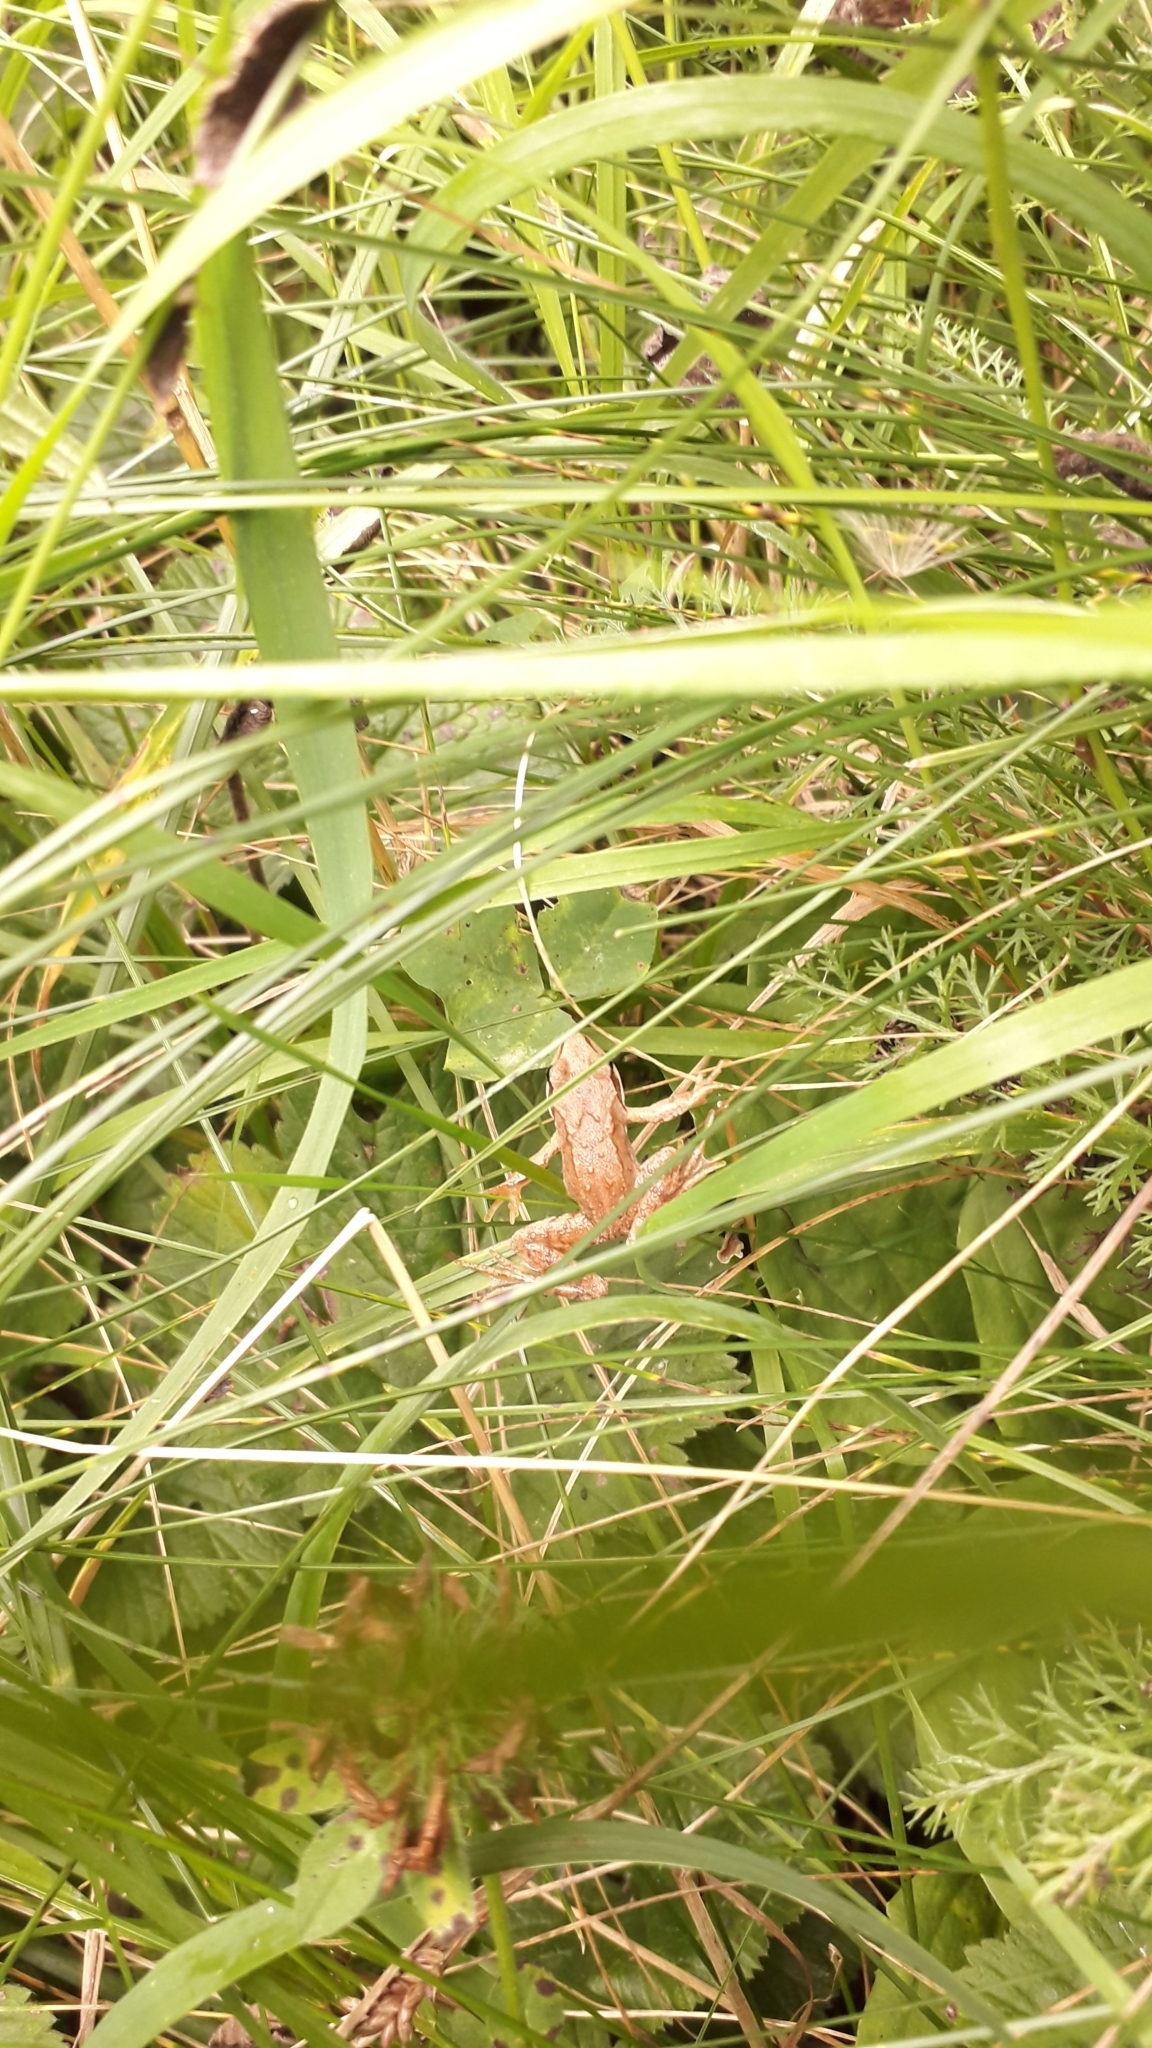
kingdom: Animalia
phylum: Chordata
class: Amphibia
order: Anura
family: Ranidae
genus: Rana
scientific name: Rana temporaria
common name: Common frog
